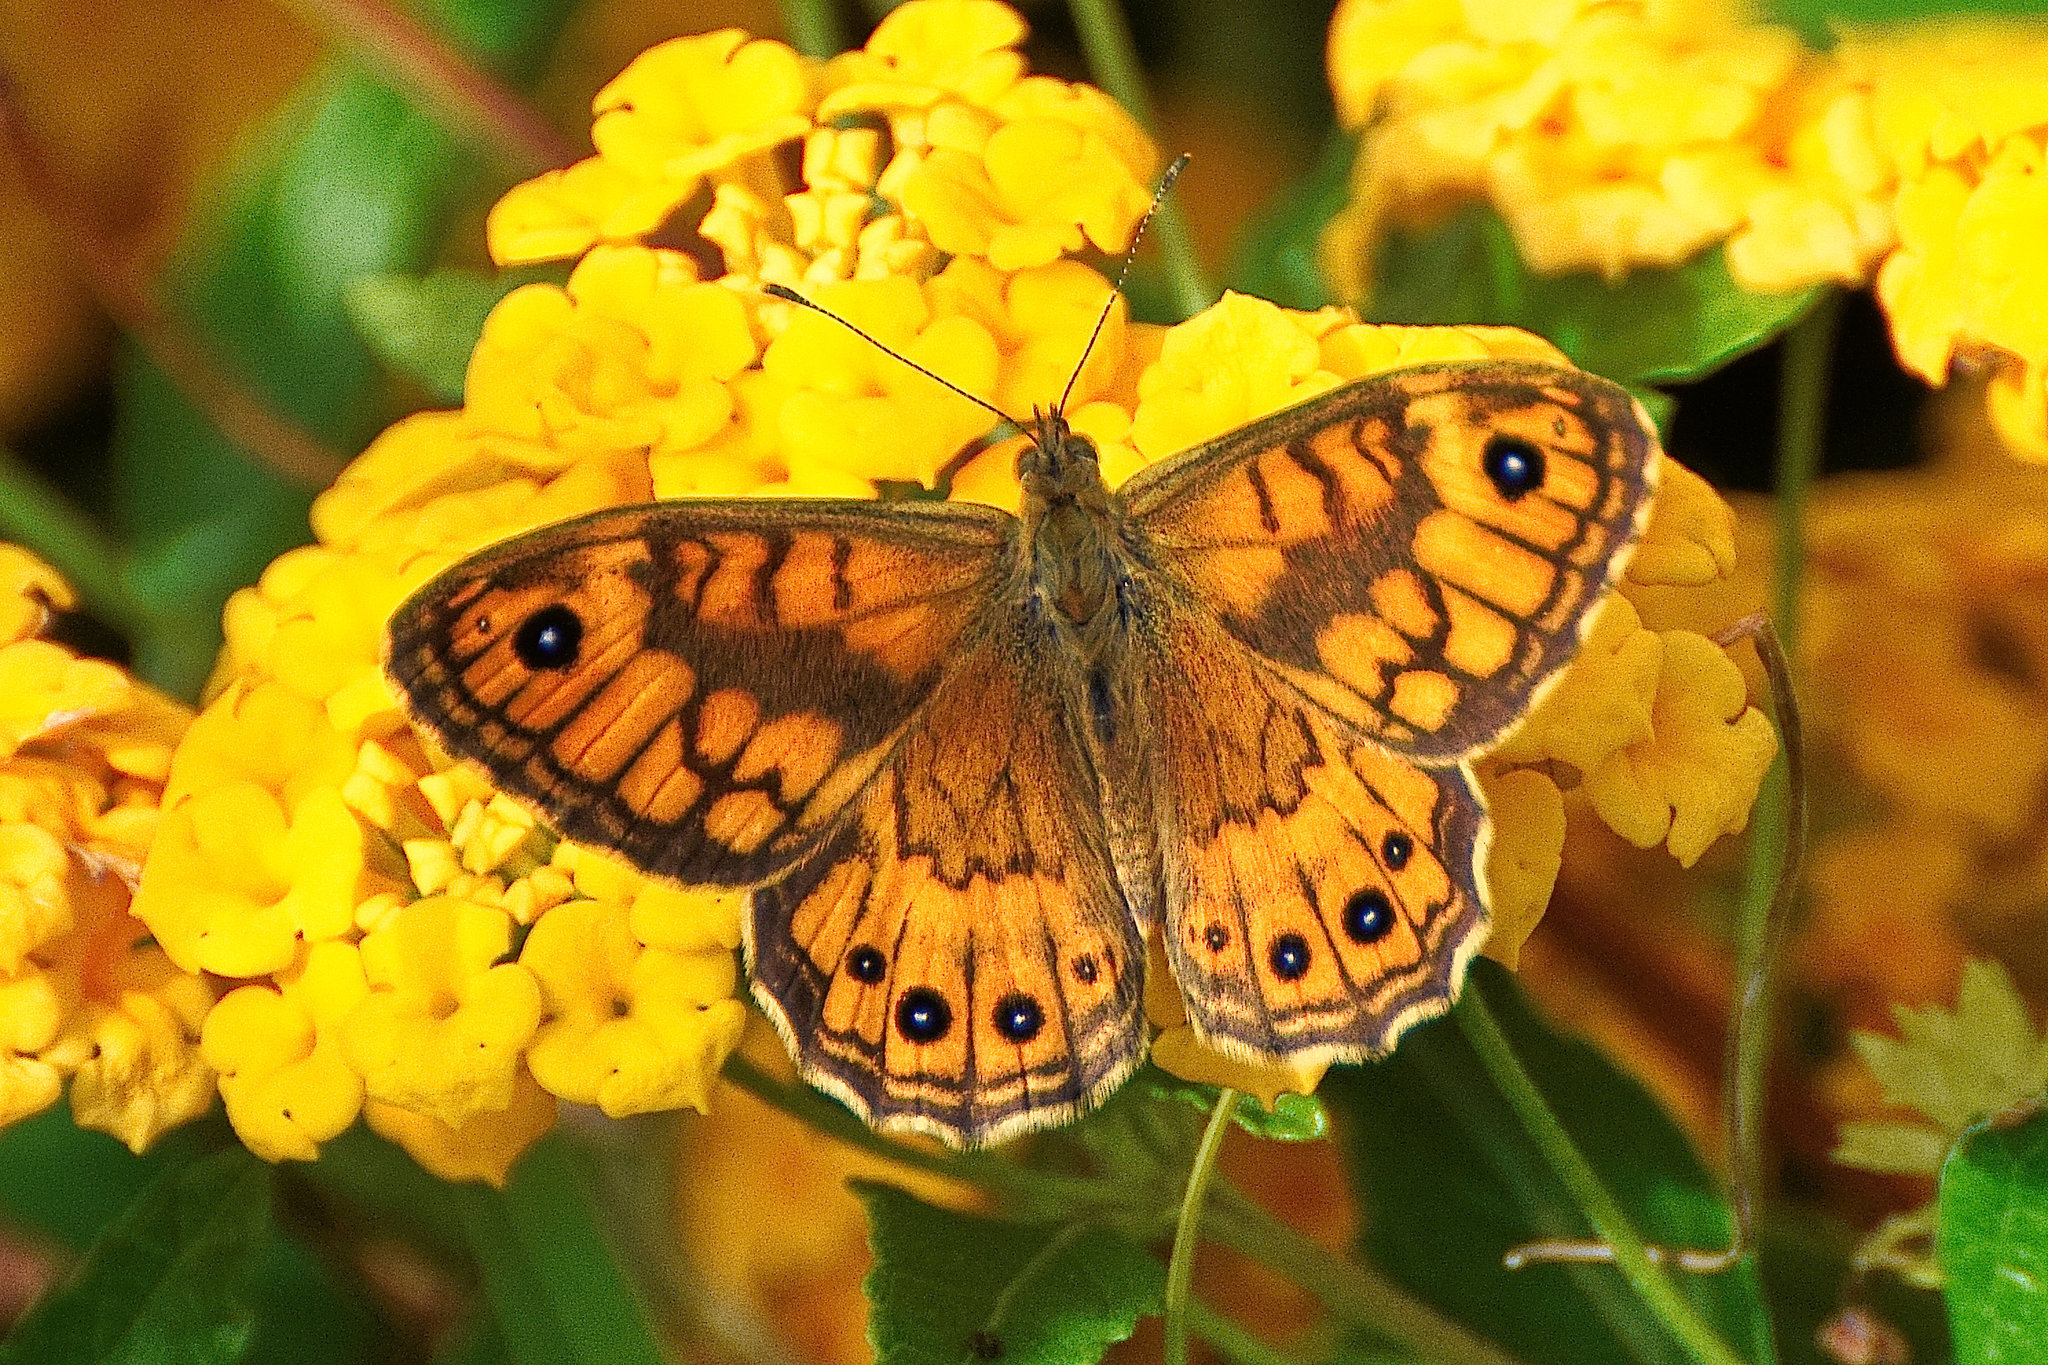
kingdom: Animalia
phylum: Arthropoda
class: Insecta
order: Lepidoptera
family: Nymphalidae
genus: Pararge
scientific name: Pararge Lasiommata megera
